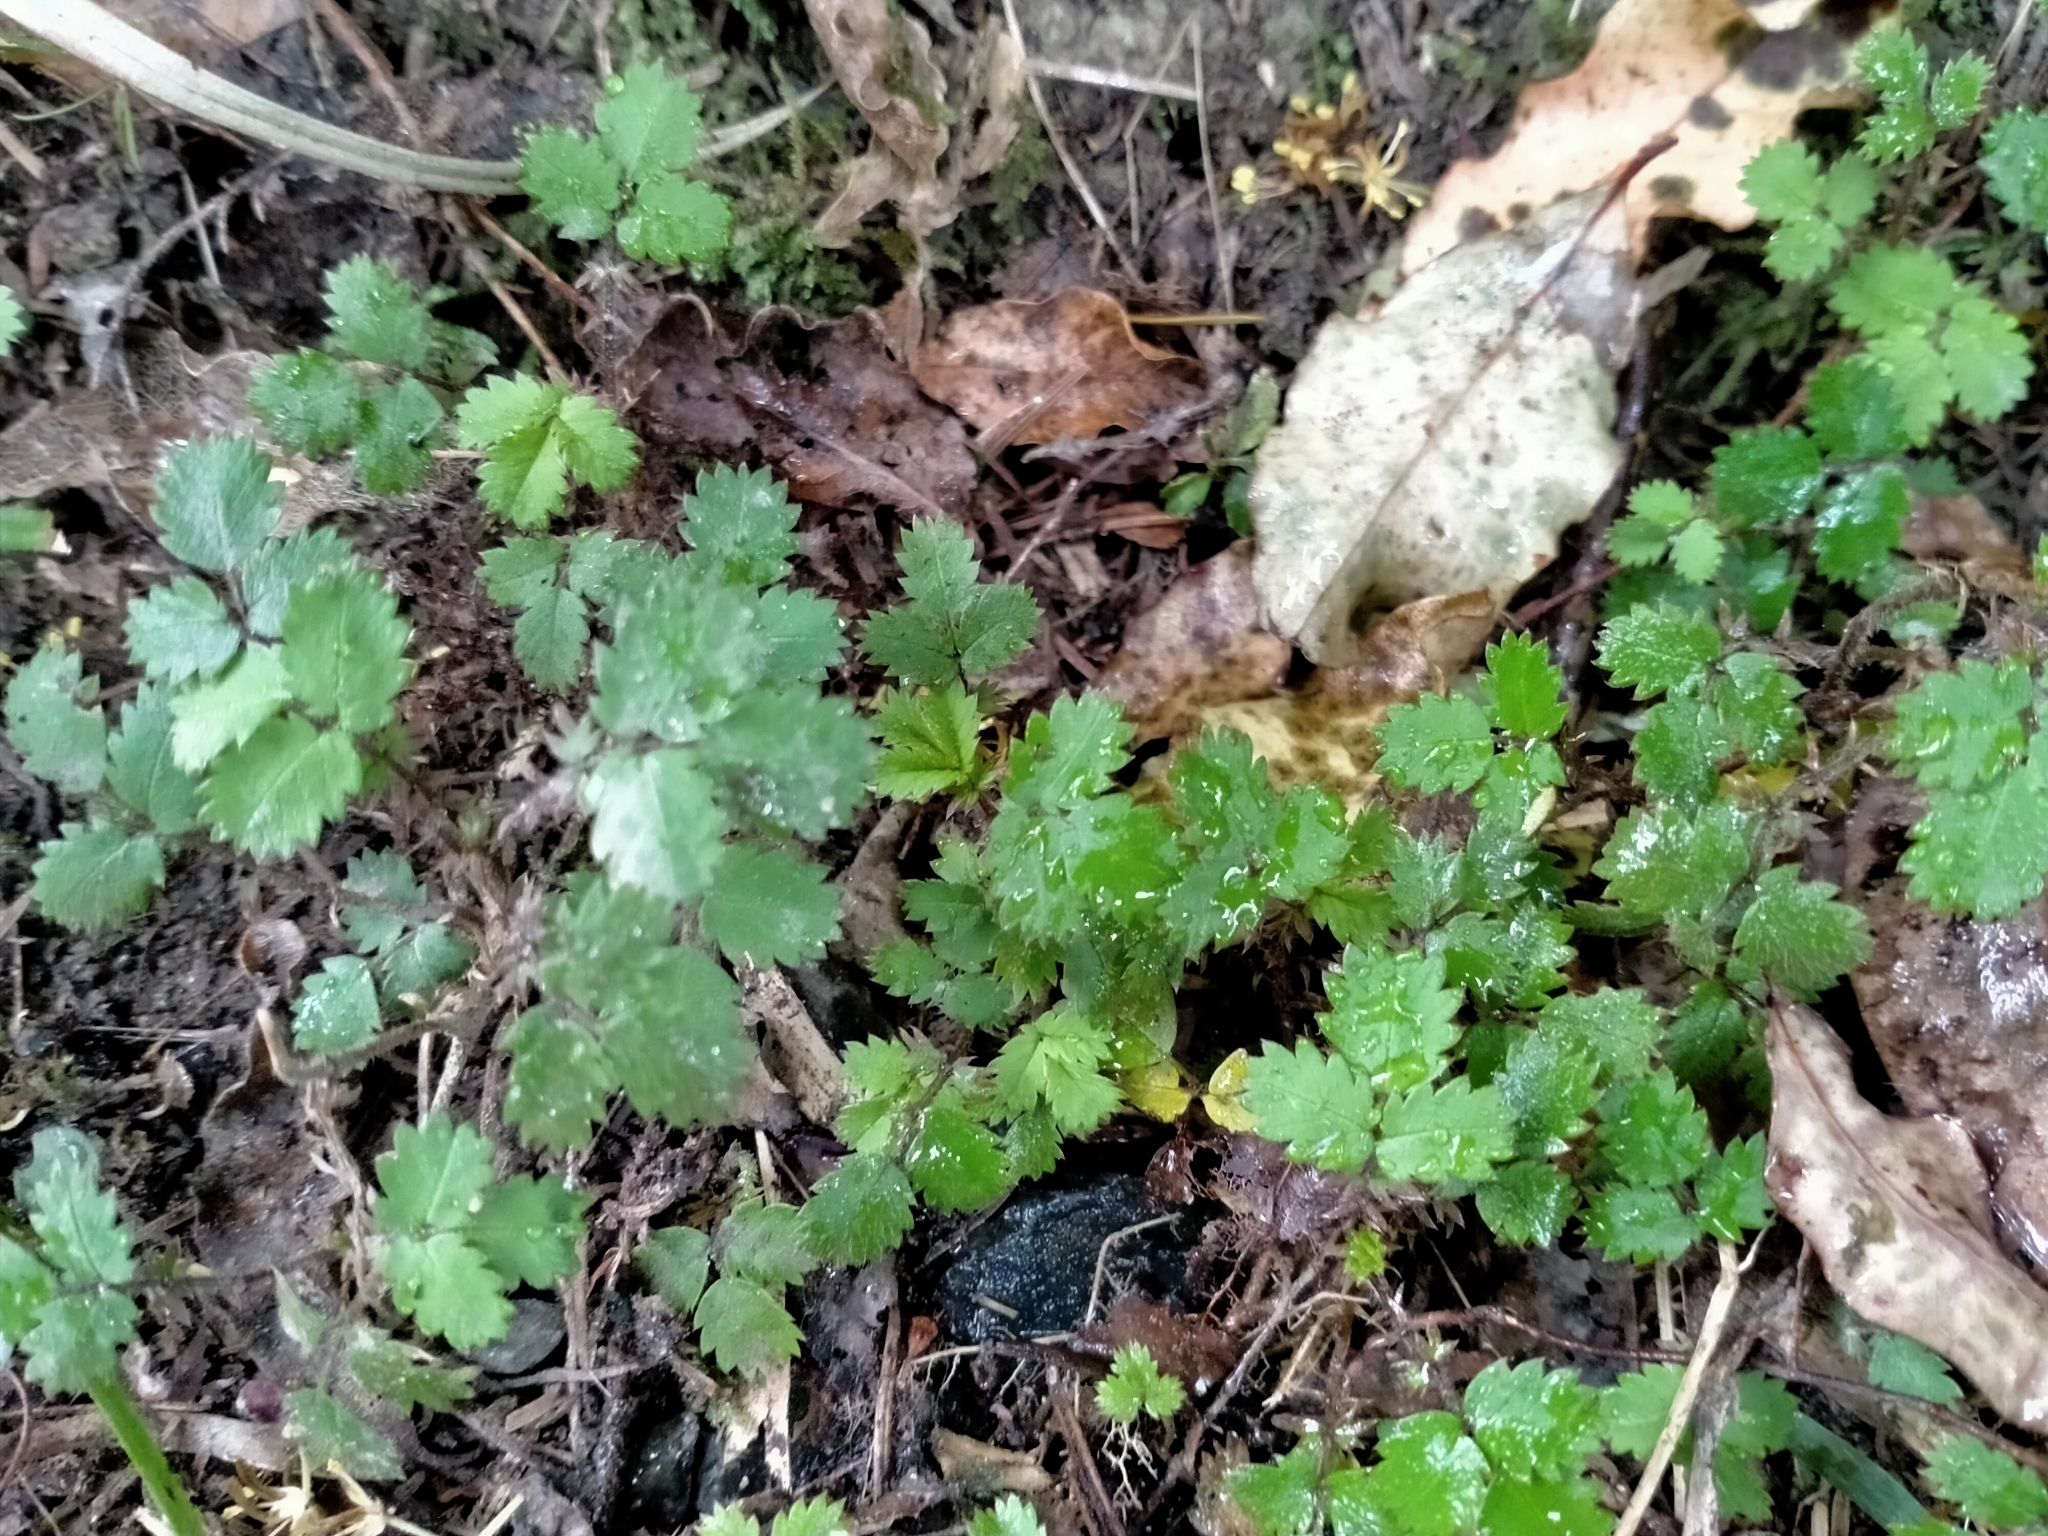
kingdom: Plantae
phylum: Tracheophyta
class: Magnoliopsida
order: Rosales
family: Rosaceae
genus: Acaena
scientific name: Acaena juvenca
